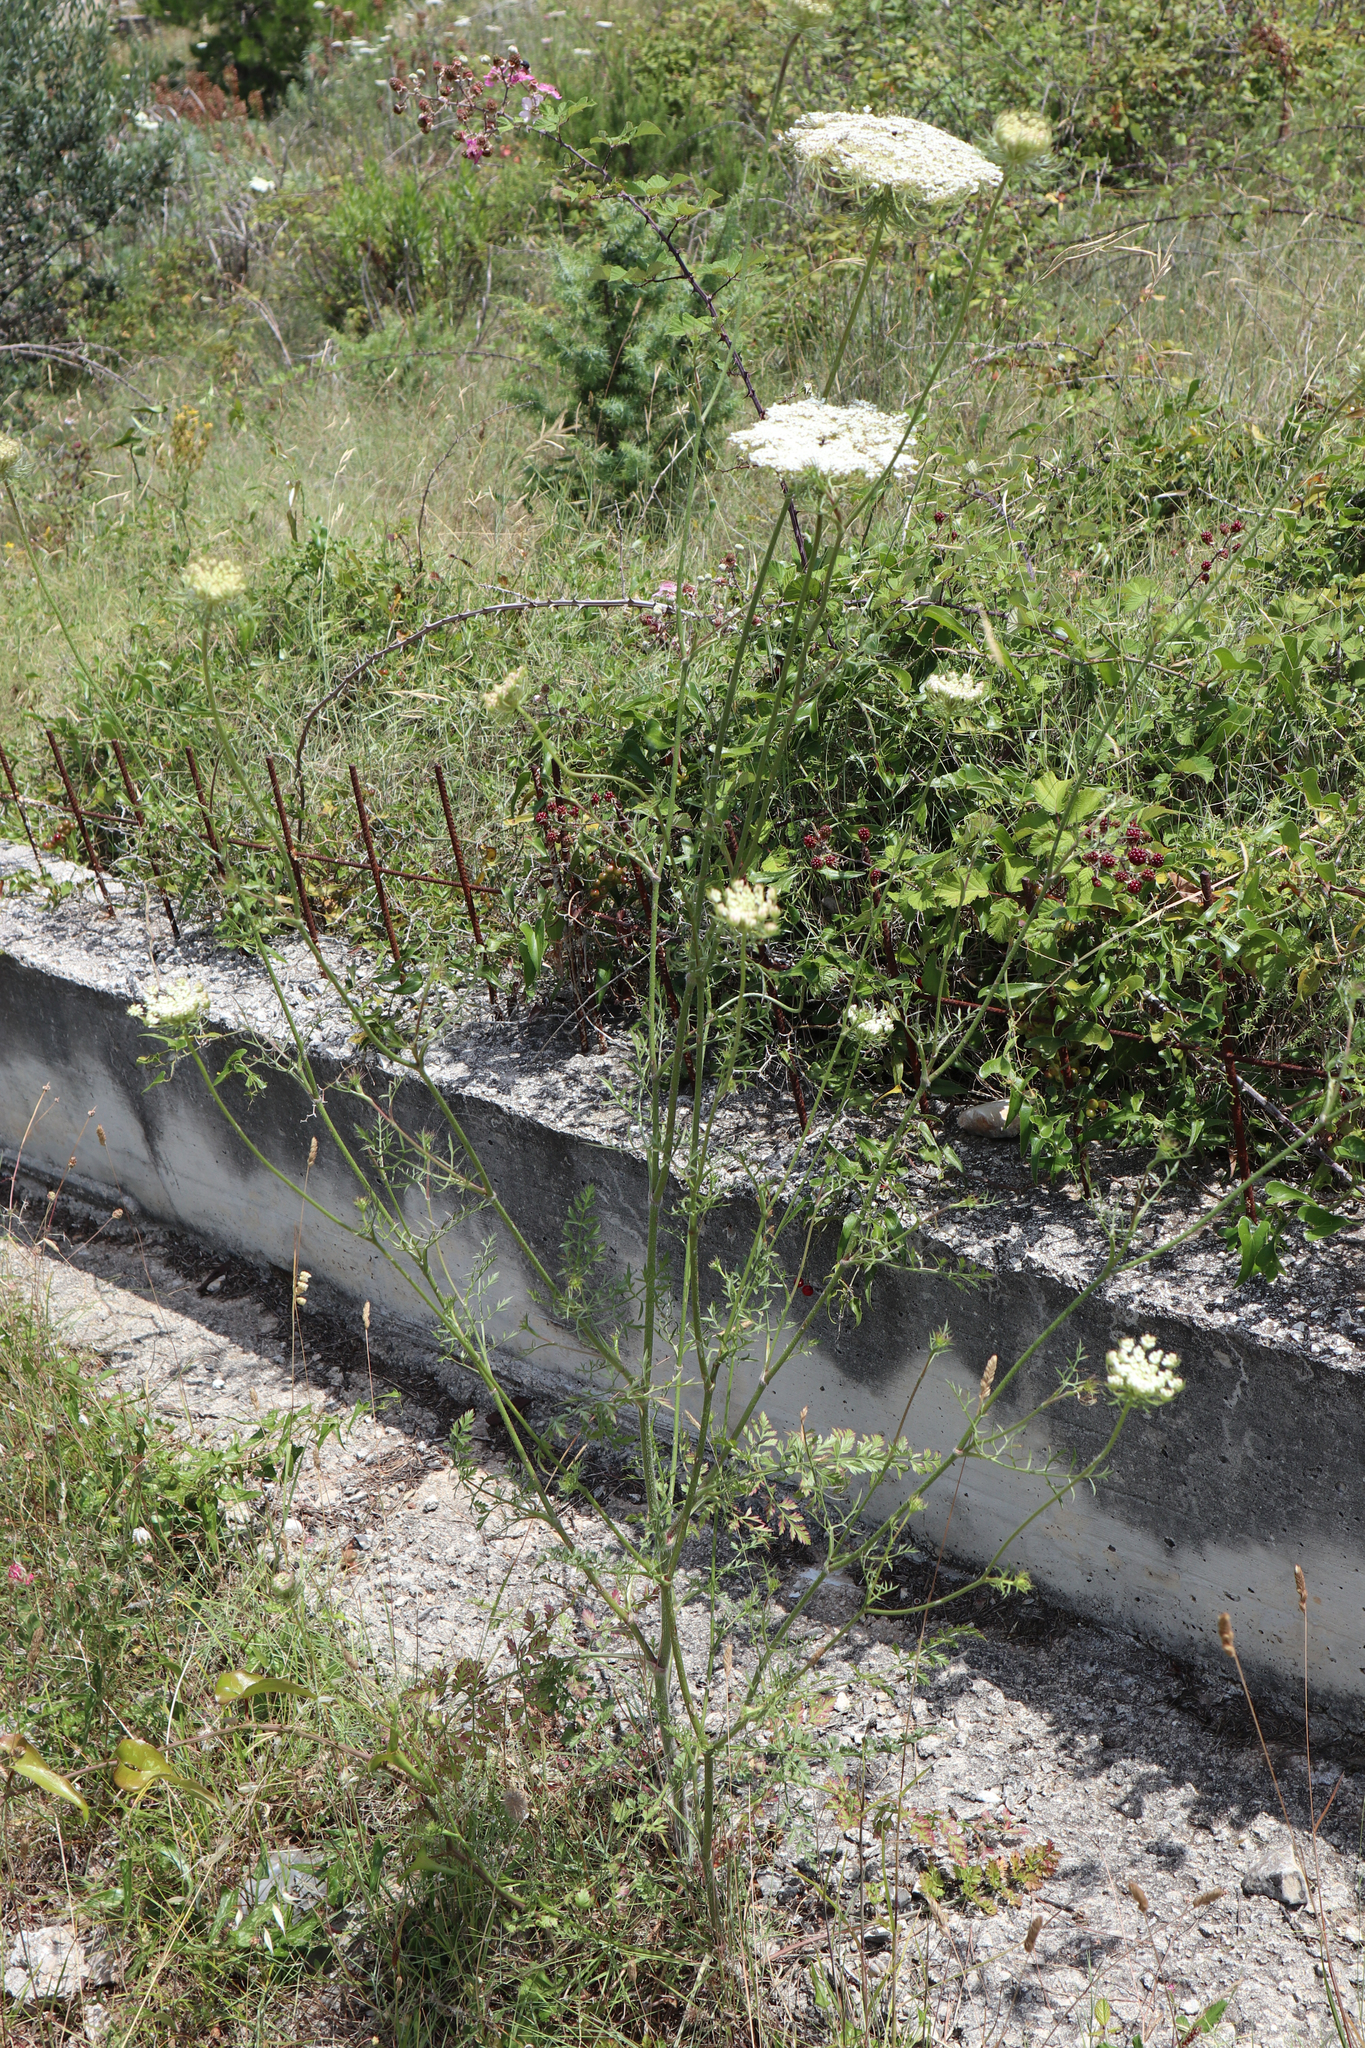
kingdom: Plantae
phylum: Tracheophyta
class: Magnoliopsida
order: Apiales
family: Apiaceae
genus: Daucus
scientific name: Daucus carota
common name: Wild carrot
